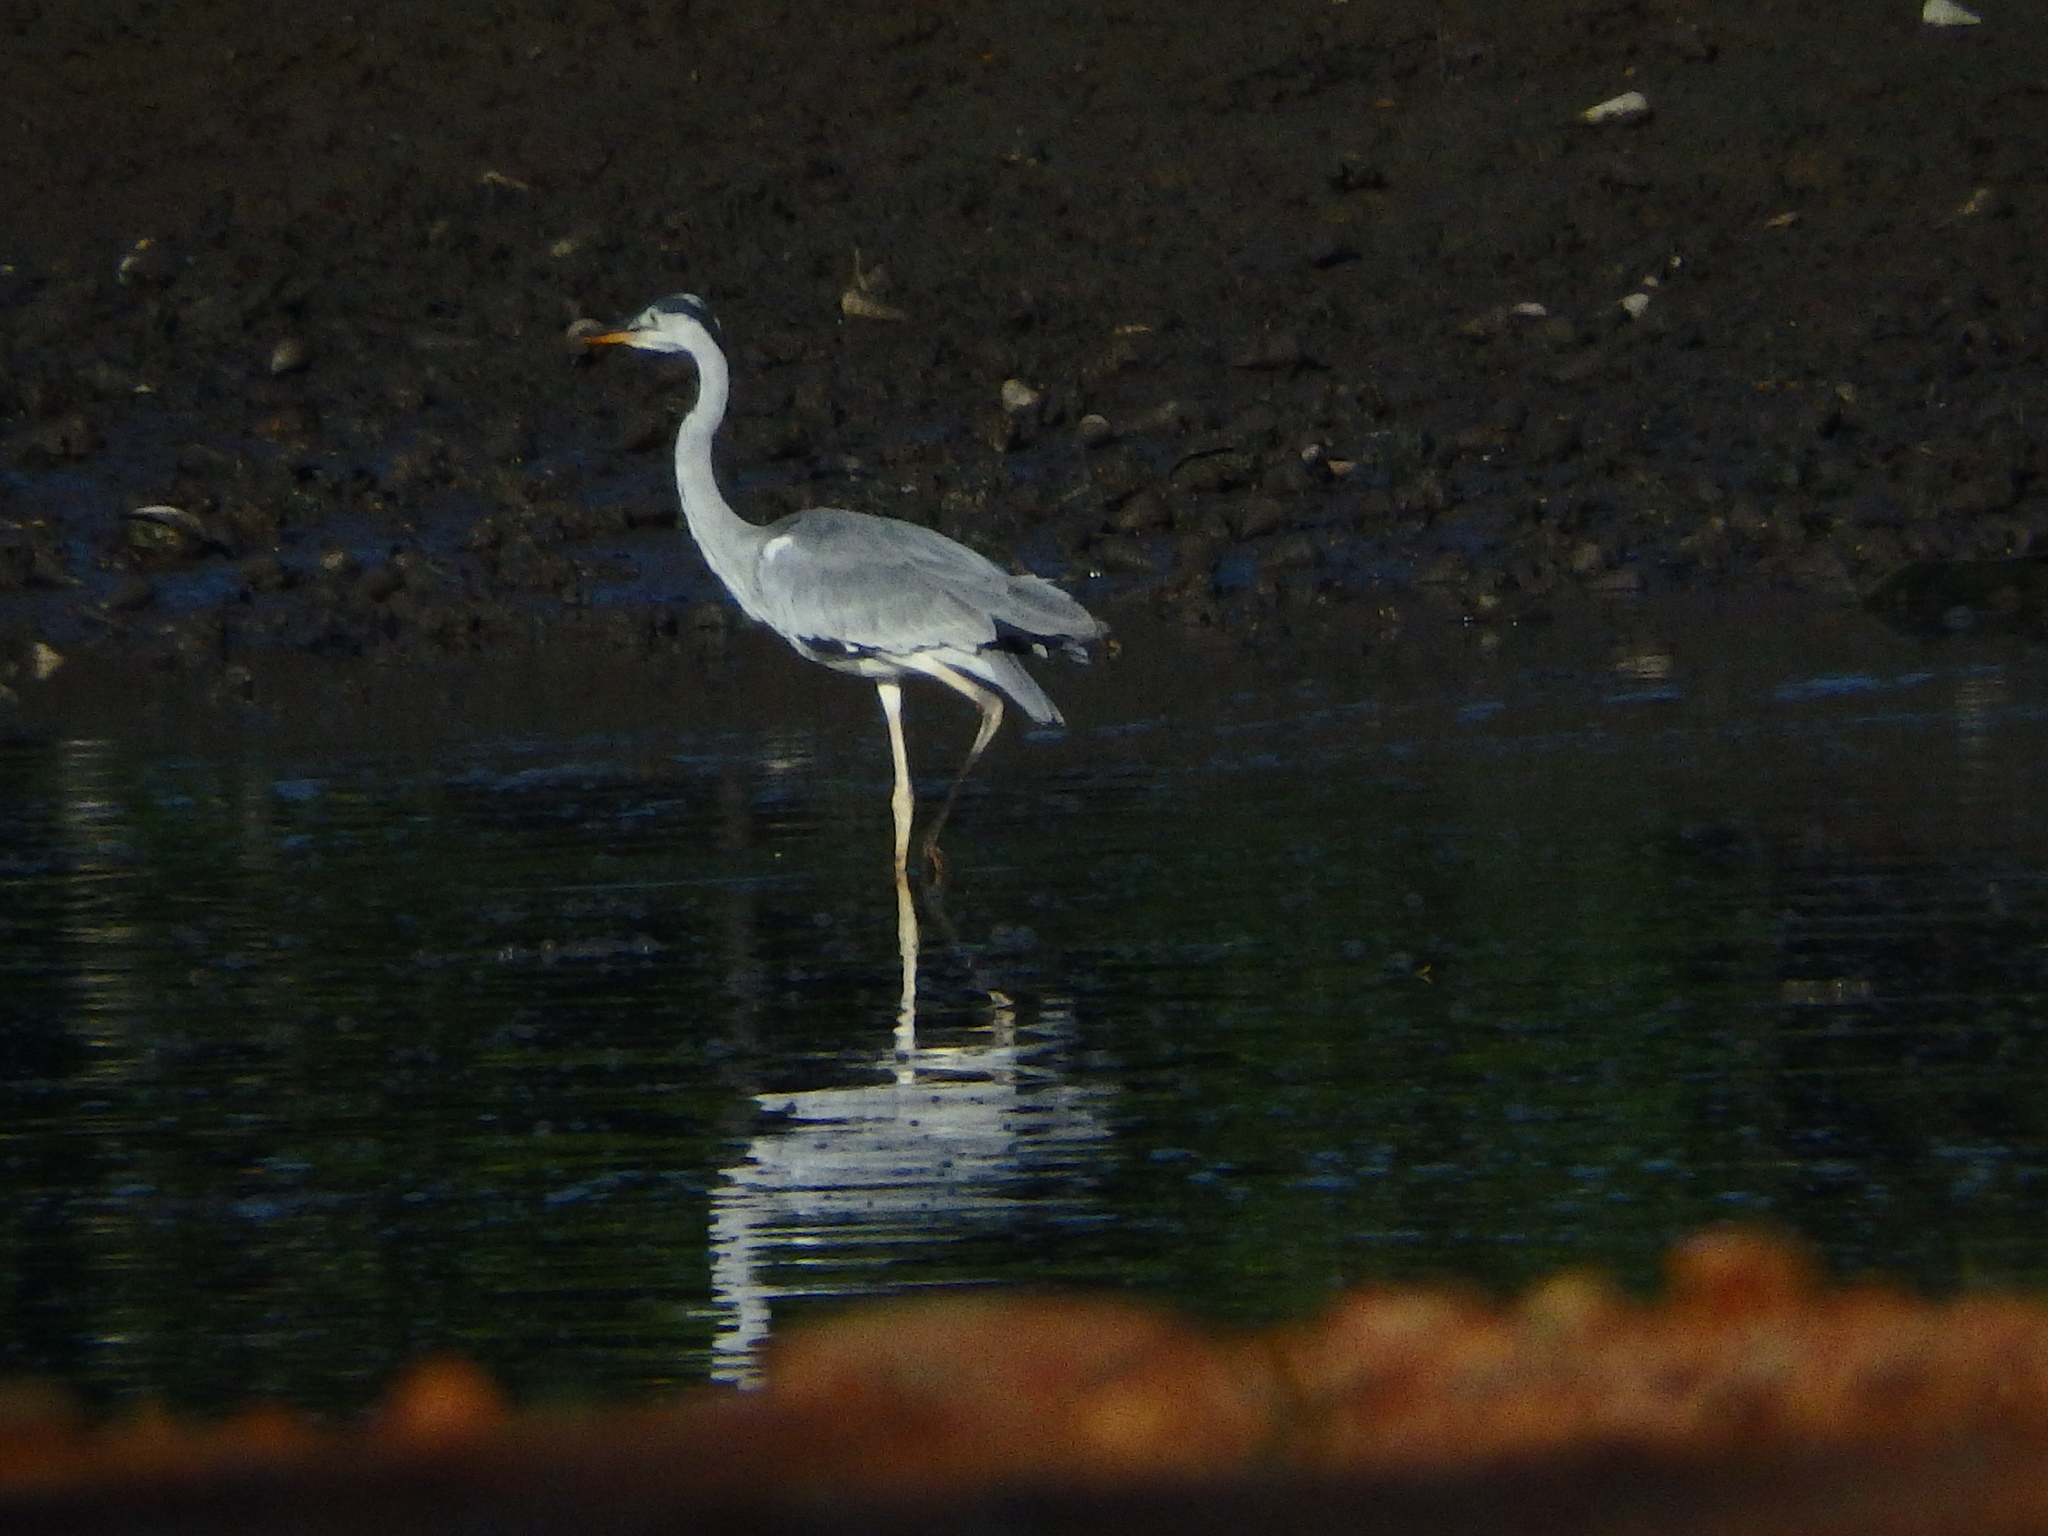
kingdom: Animalia
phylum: Chordata
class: Aves
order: Pelecaniformes
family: Ardeidae
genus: Ardea
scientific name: Ardea cinerea
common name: Grey heron
